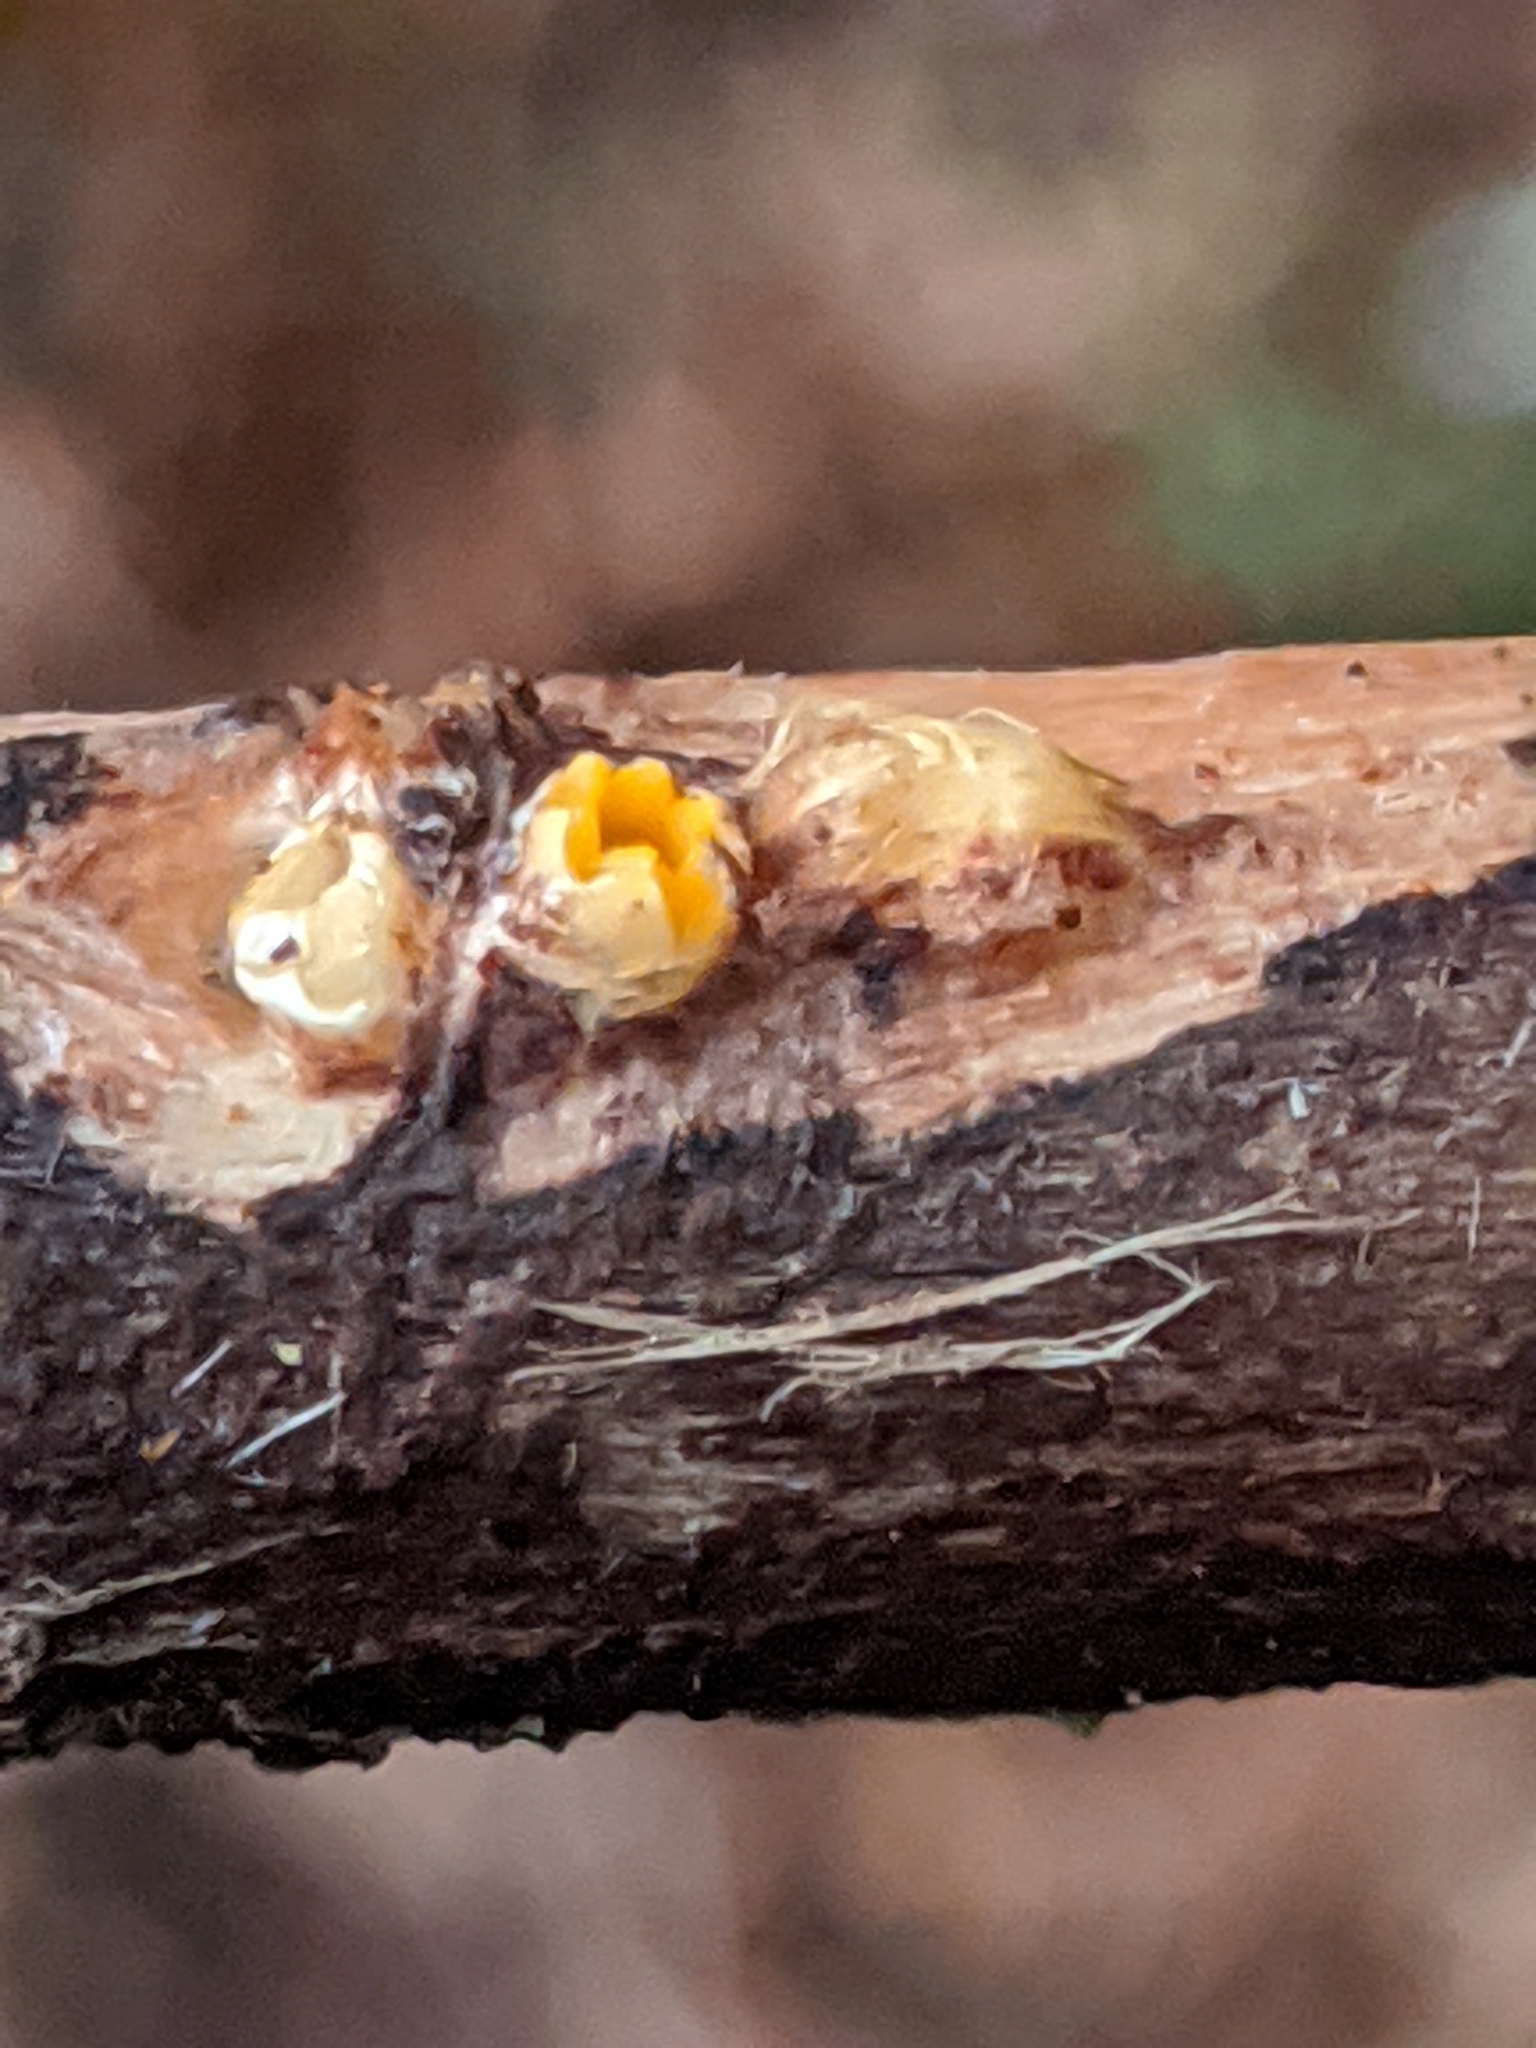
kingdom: Fungi
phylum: Basidiomycota
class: Agaricomycetes
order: Geastrales
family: Geastraceae
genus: Sphaerobolus
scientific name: Sphaerobolus stellatus
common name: Cannon fungus
